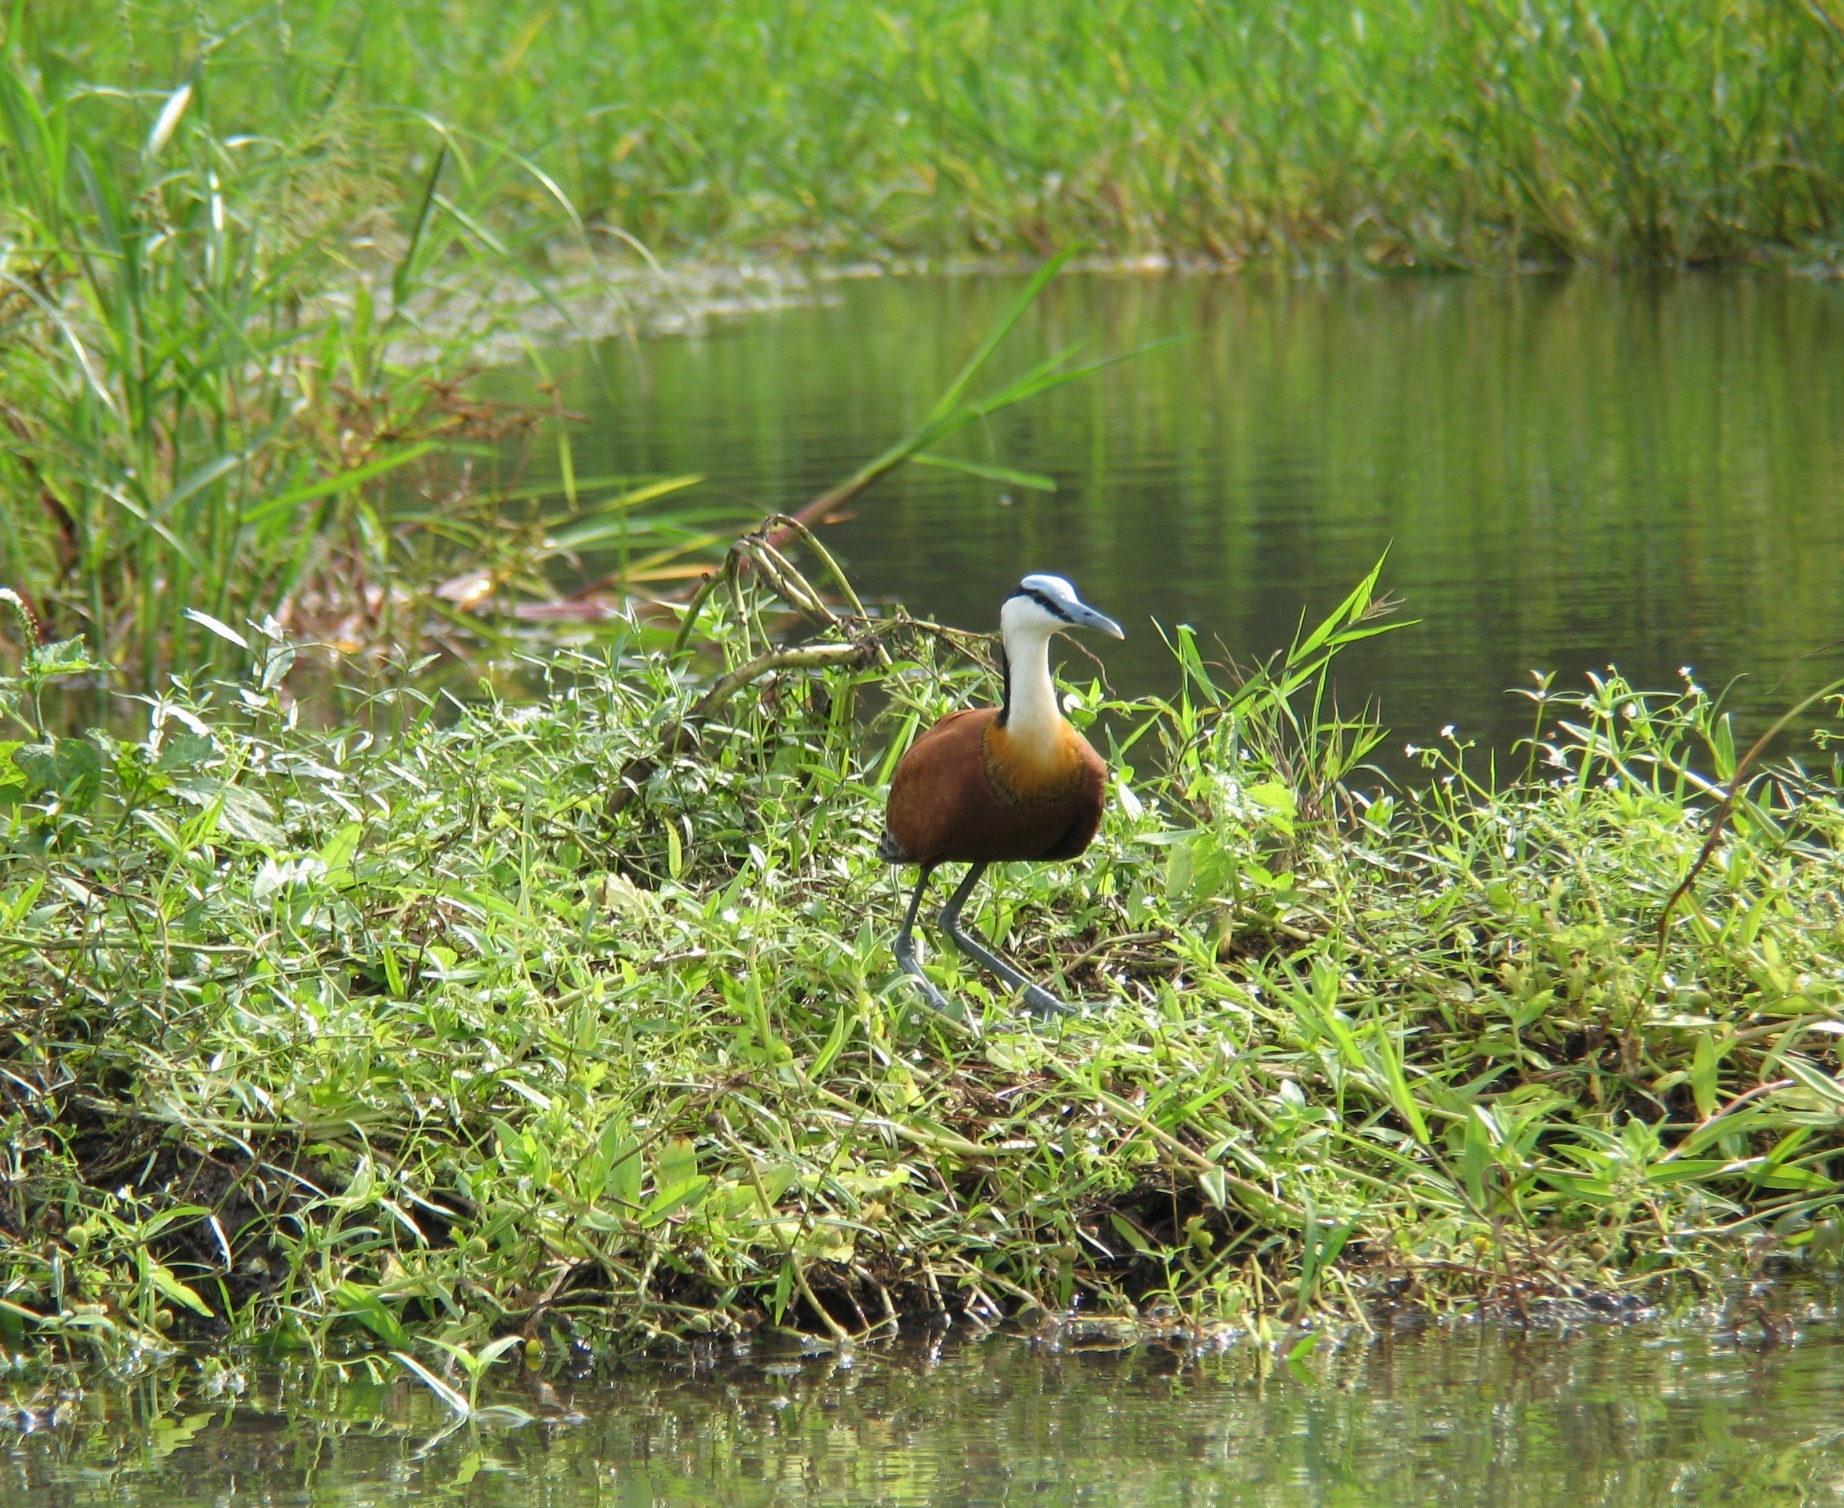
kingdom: Animalia
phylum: Chordata
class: Aves
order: Charadriiformes
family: Jacanidae
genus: Actophilornis
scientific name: Actophilornis africanus
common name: African jacana
